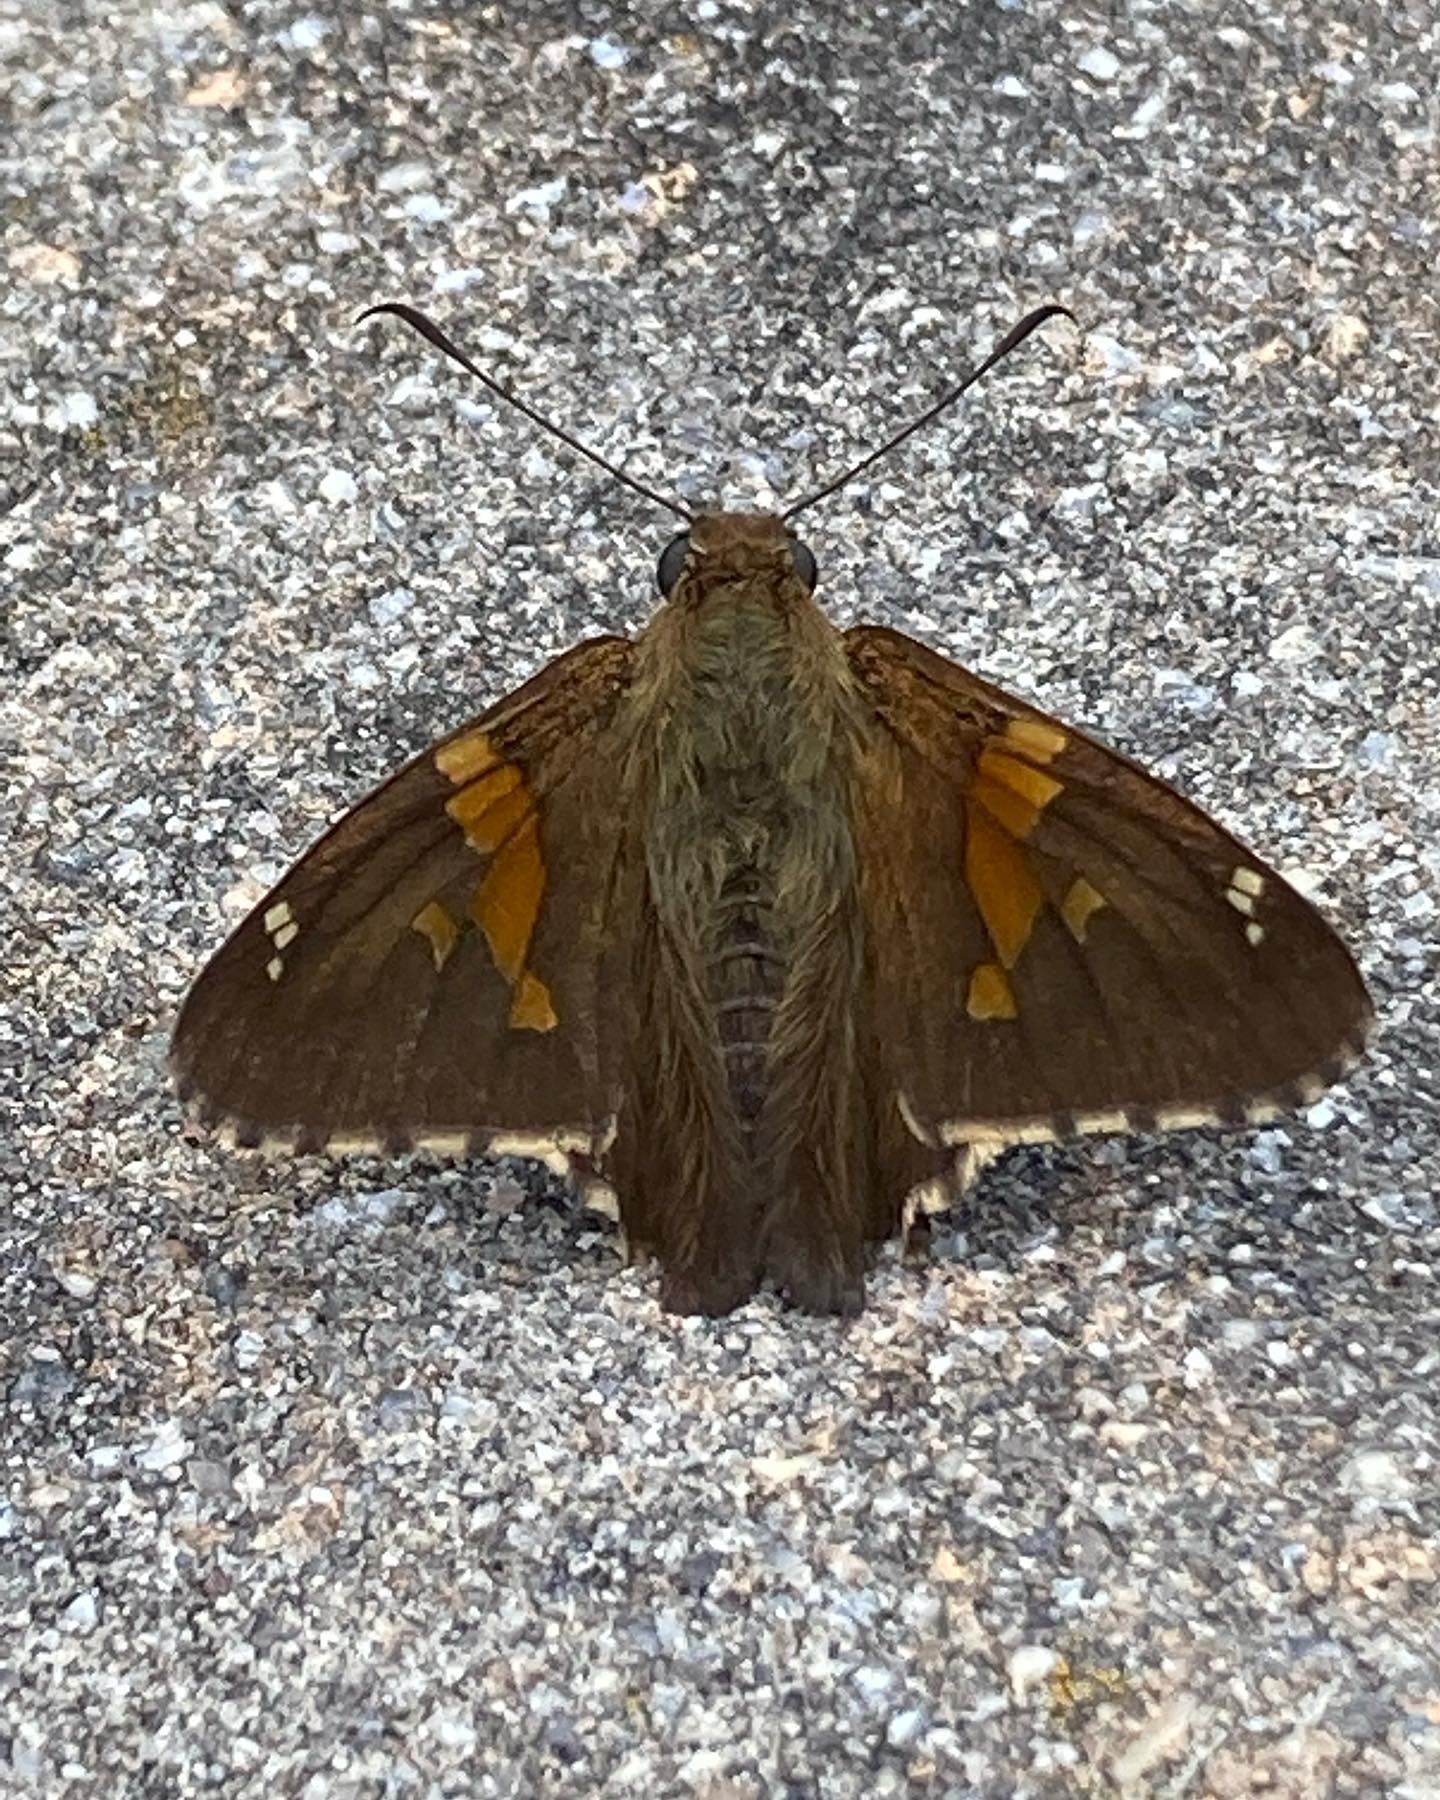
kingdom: Animalia
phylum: Arthropoda
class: Insecta
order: Lepidoptera
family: Hesperiidae
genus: Epargyreus
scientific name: Epargyreus clarus
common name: Silver-spotted skipper
